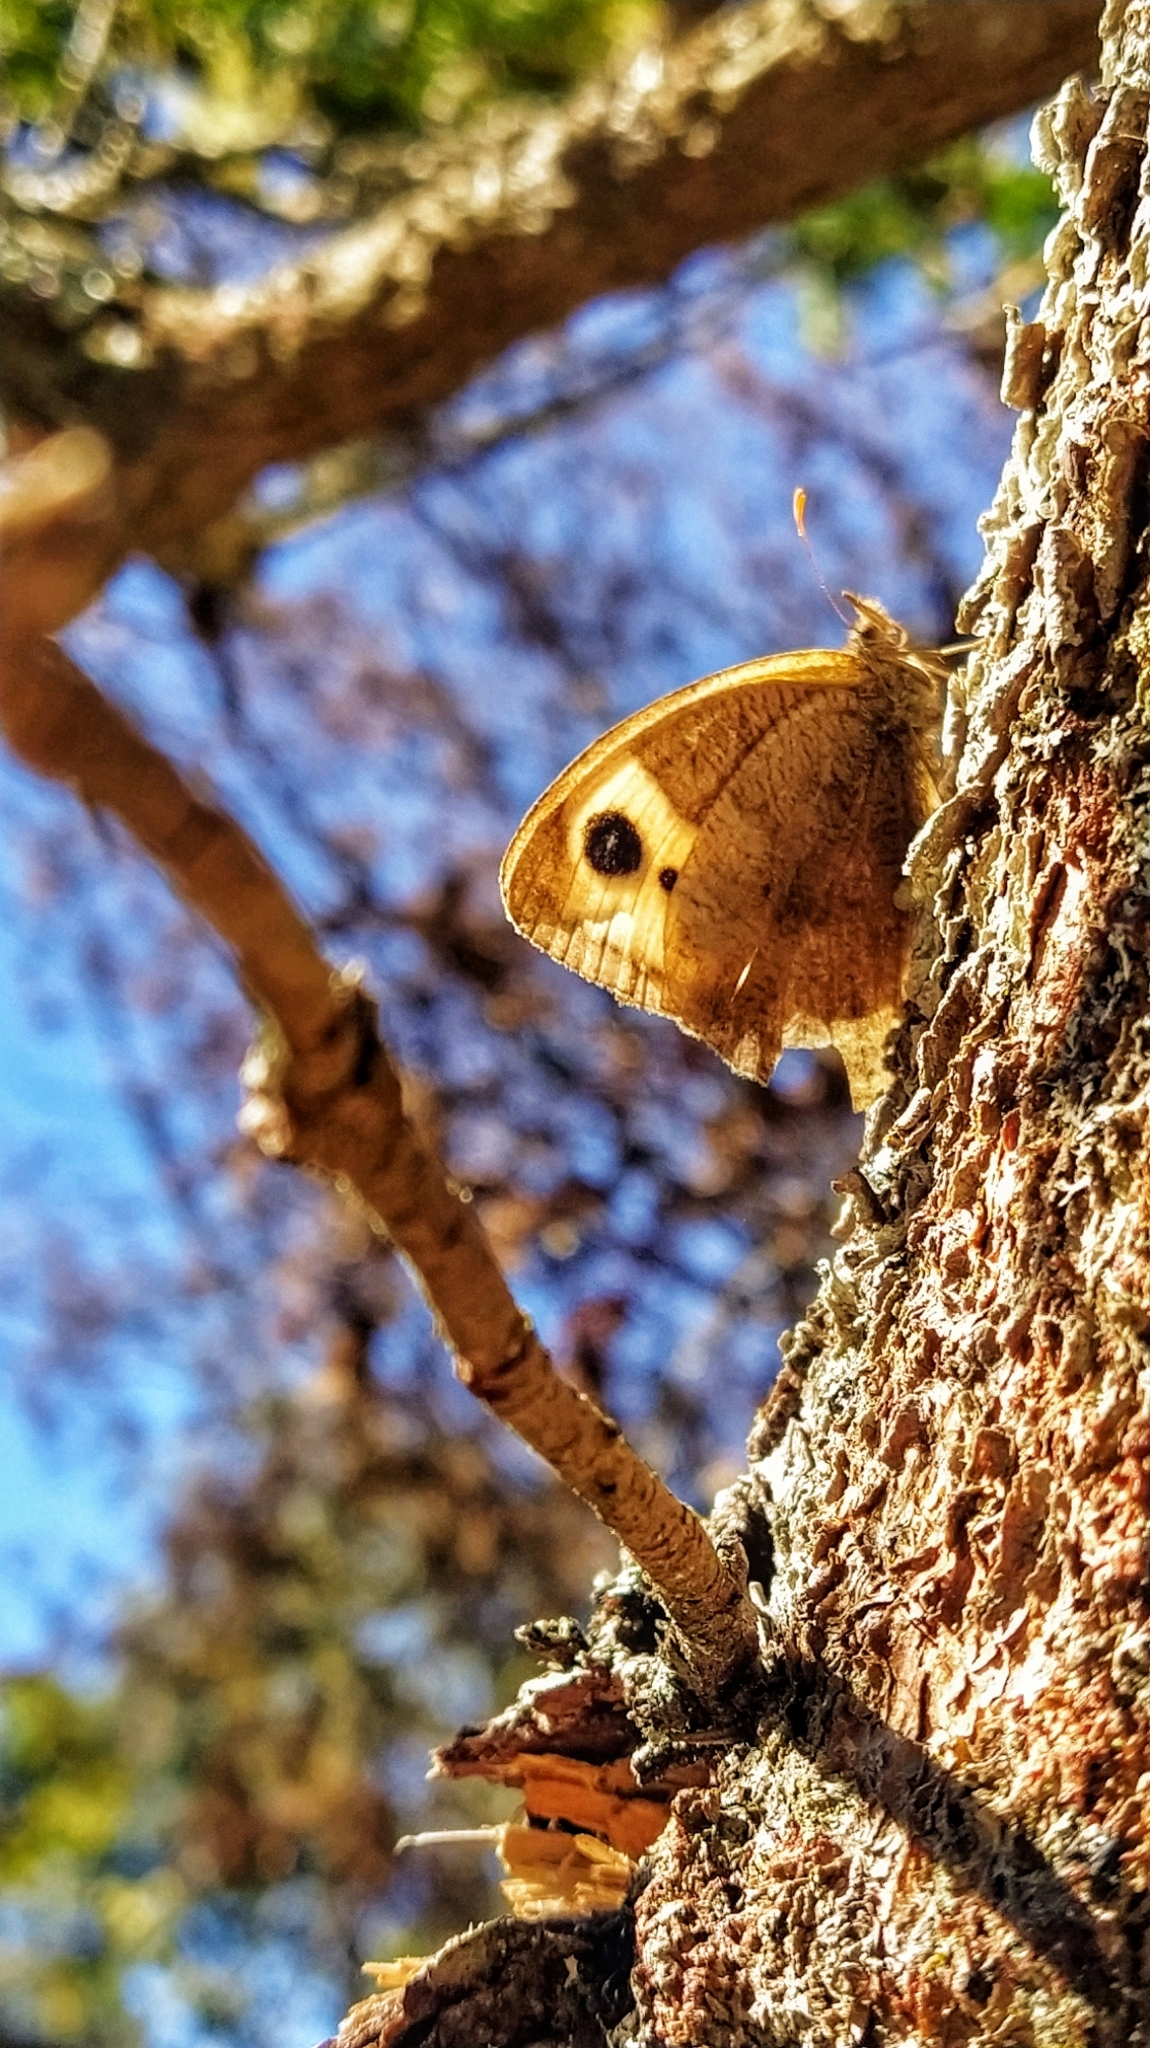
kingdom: Animalia
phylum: Arthropoda
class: Insecta
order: Lepidoptera
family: Nymphalidae
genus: Cercyonis
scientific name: Cercyonis pegala
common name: Common wood-nymph
